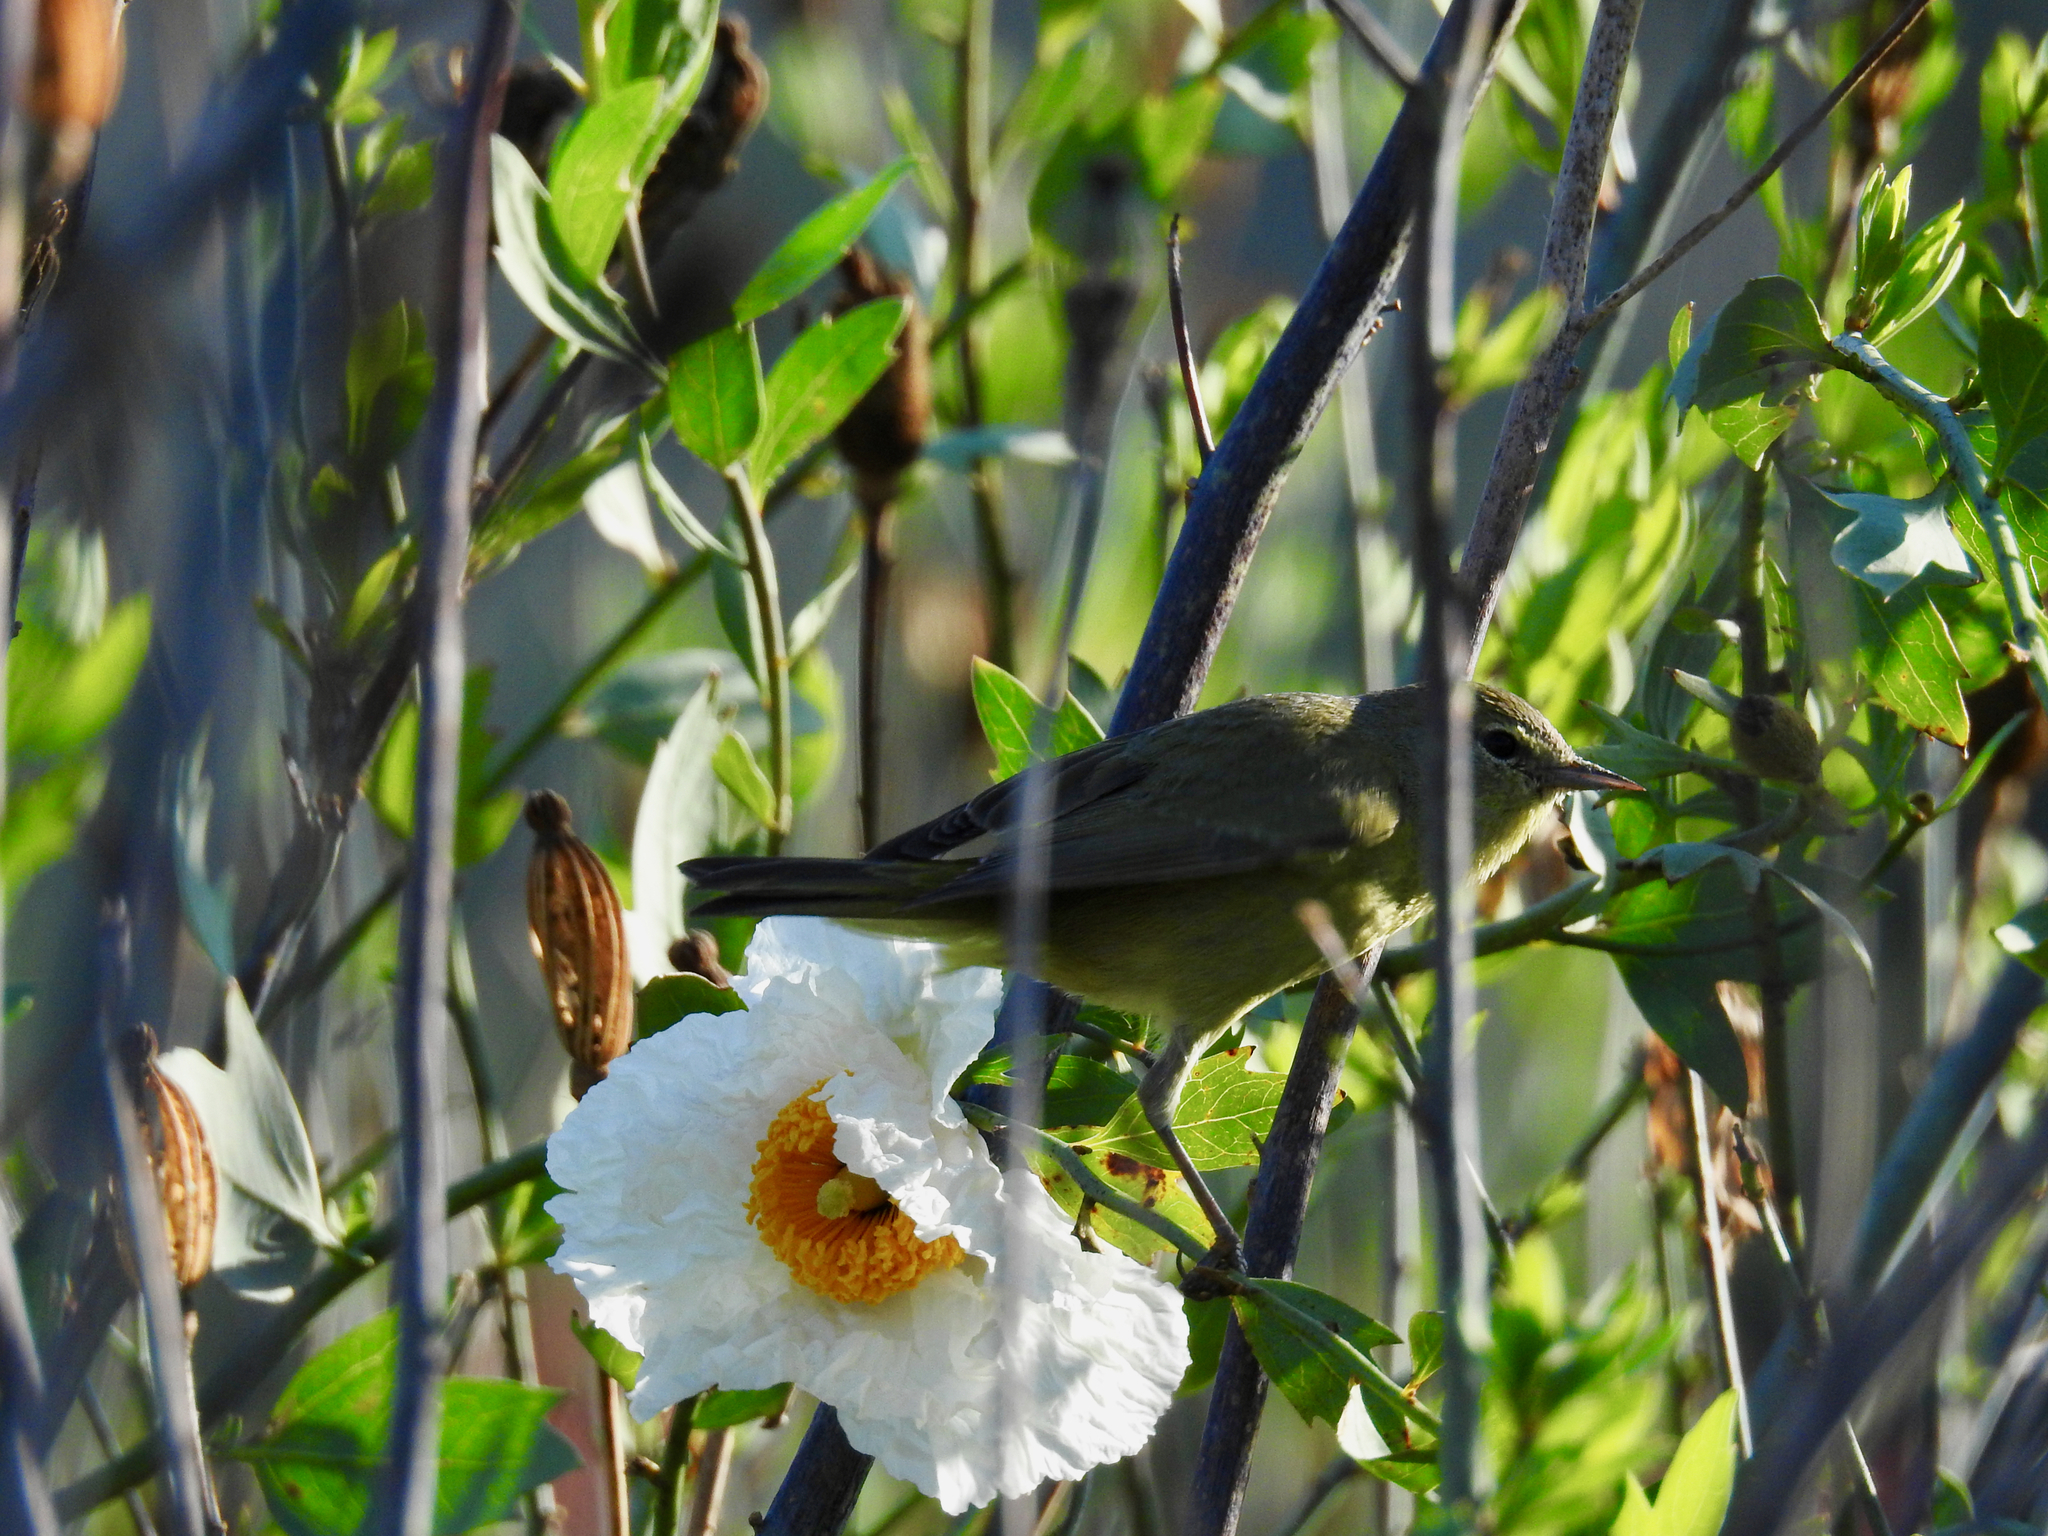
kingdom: Animalia
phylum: Chordata
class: Aves
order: Passeriformes
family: Parulidae
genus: Leiothlypis
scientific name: Leiothlypis celata
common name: Orange-crowned warbler
